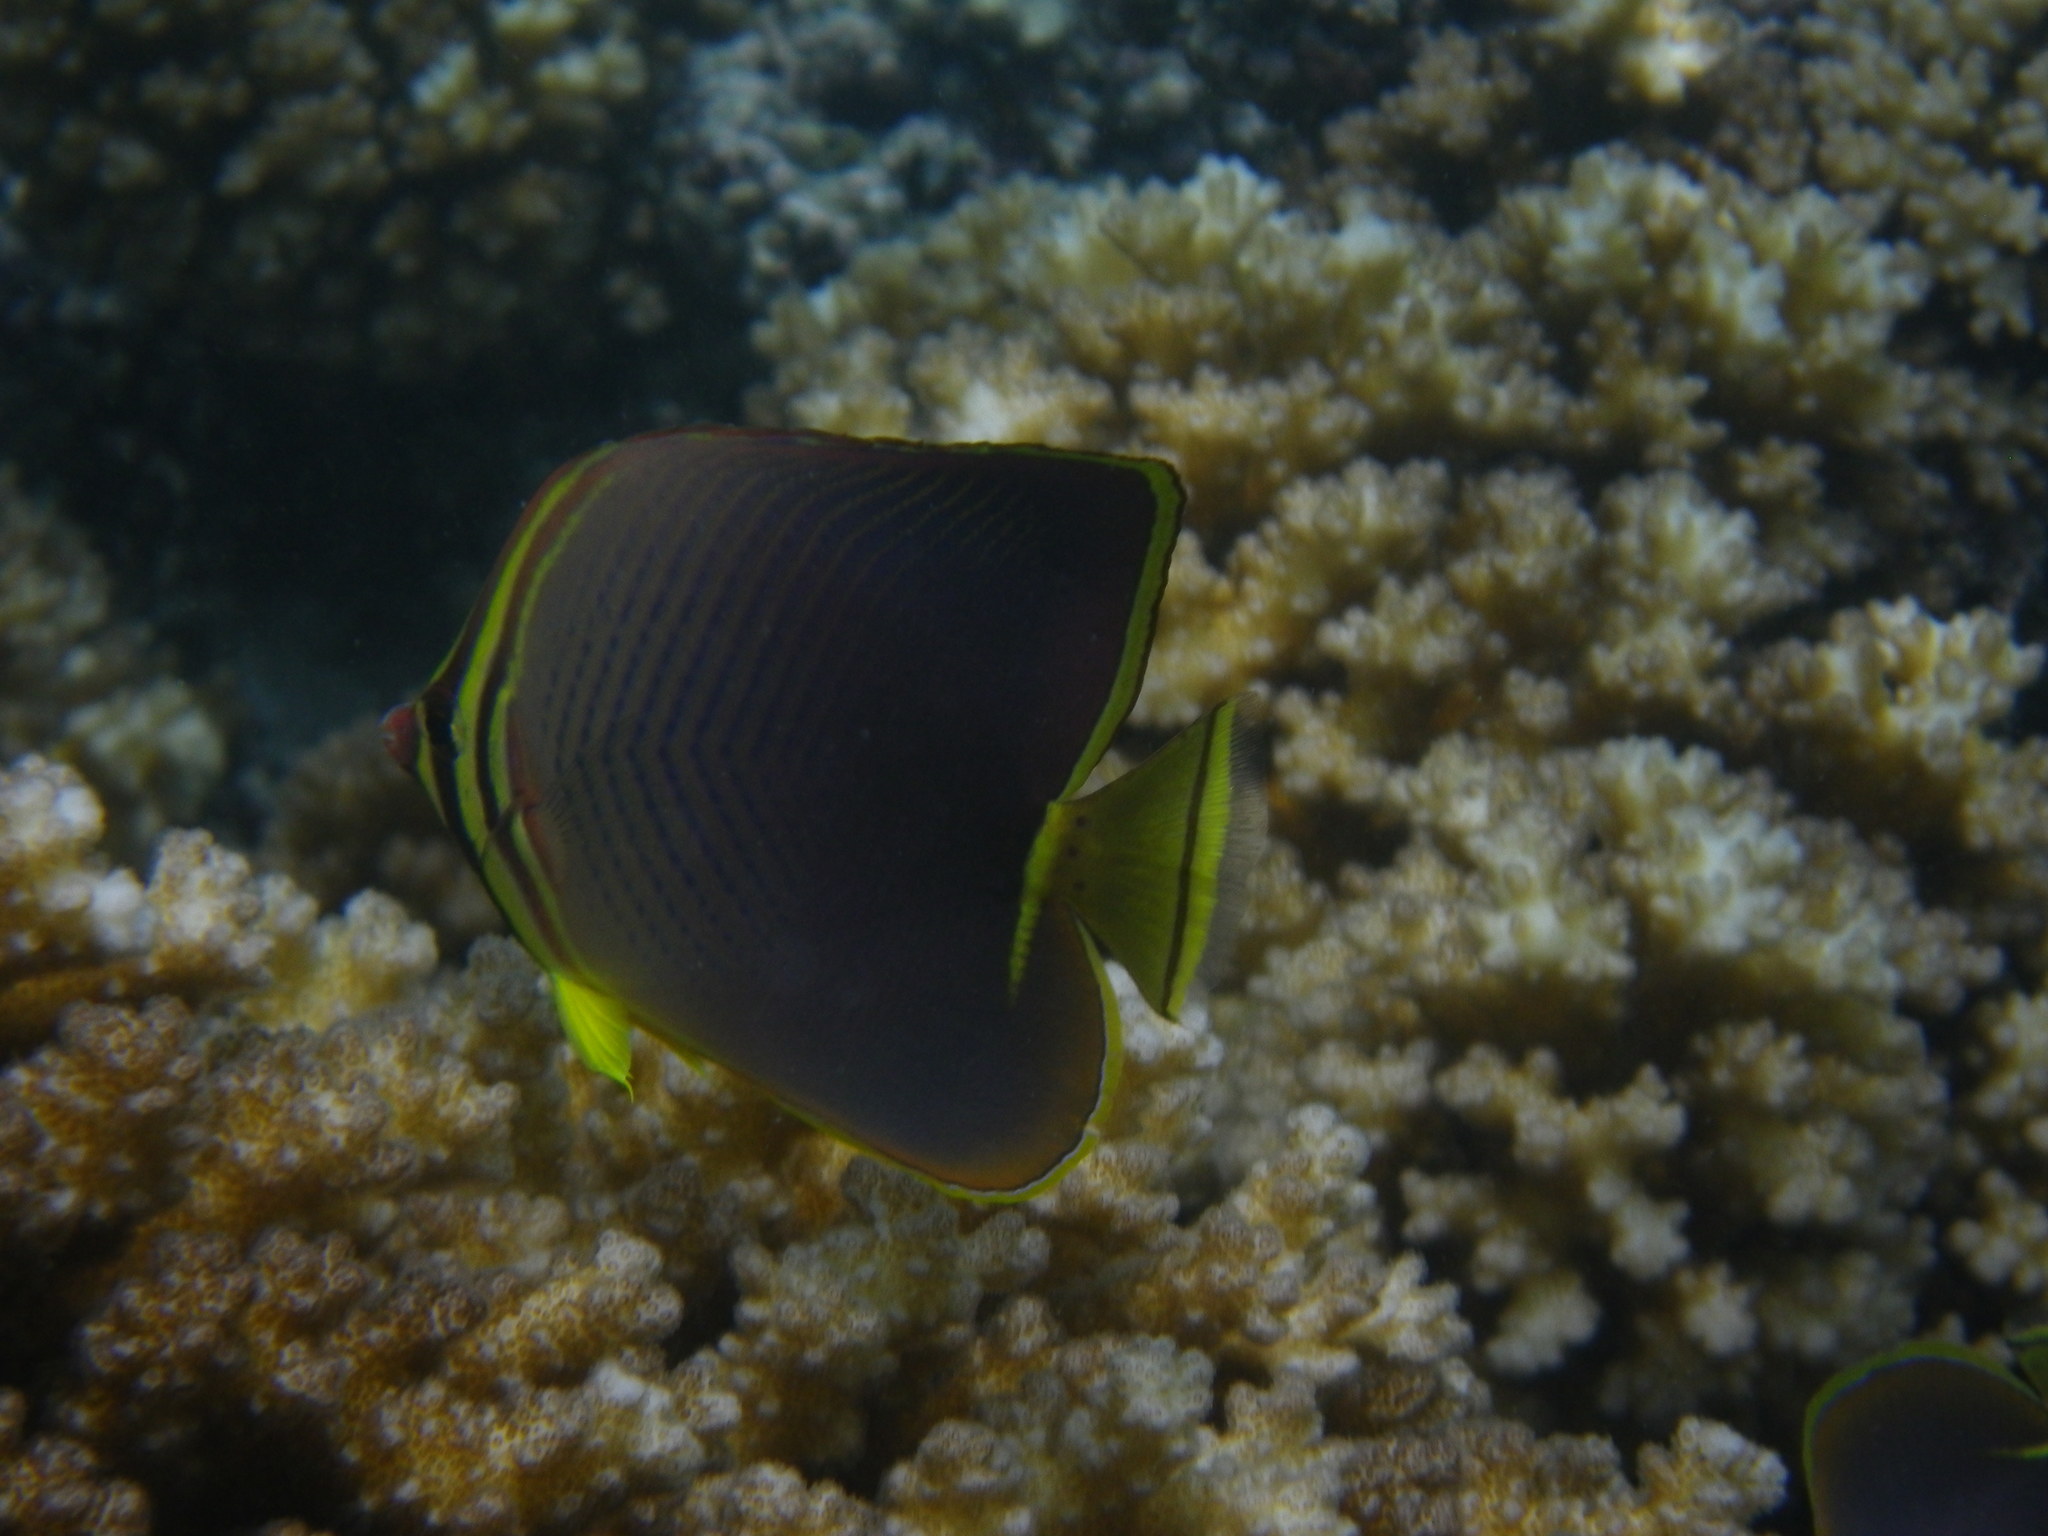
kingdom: Animalia
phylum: Chordata
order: Perciformes
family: Chaetodontidae
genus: Chaetodon
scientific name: Chaetodon baronessa
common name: Triangular butterflyfish
